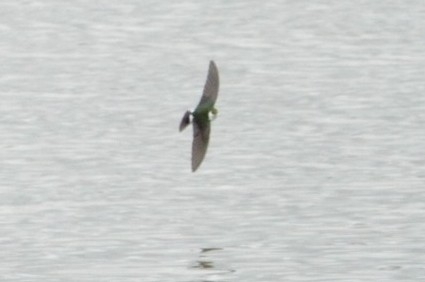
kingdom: Animalia
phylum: Chordata
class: Aves
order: Passeriformes
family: Hirundinidae
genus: Tachycineta
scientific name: Tachycineta thalassina
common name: Violet-green swallow
